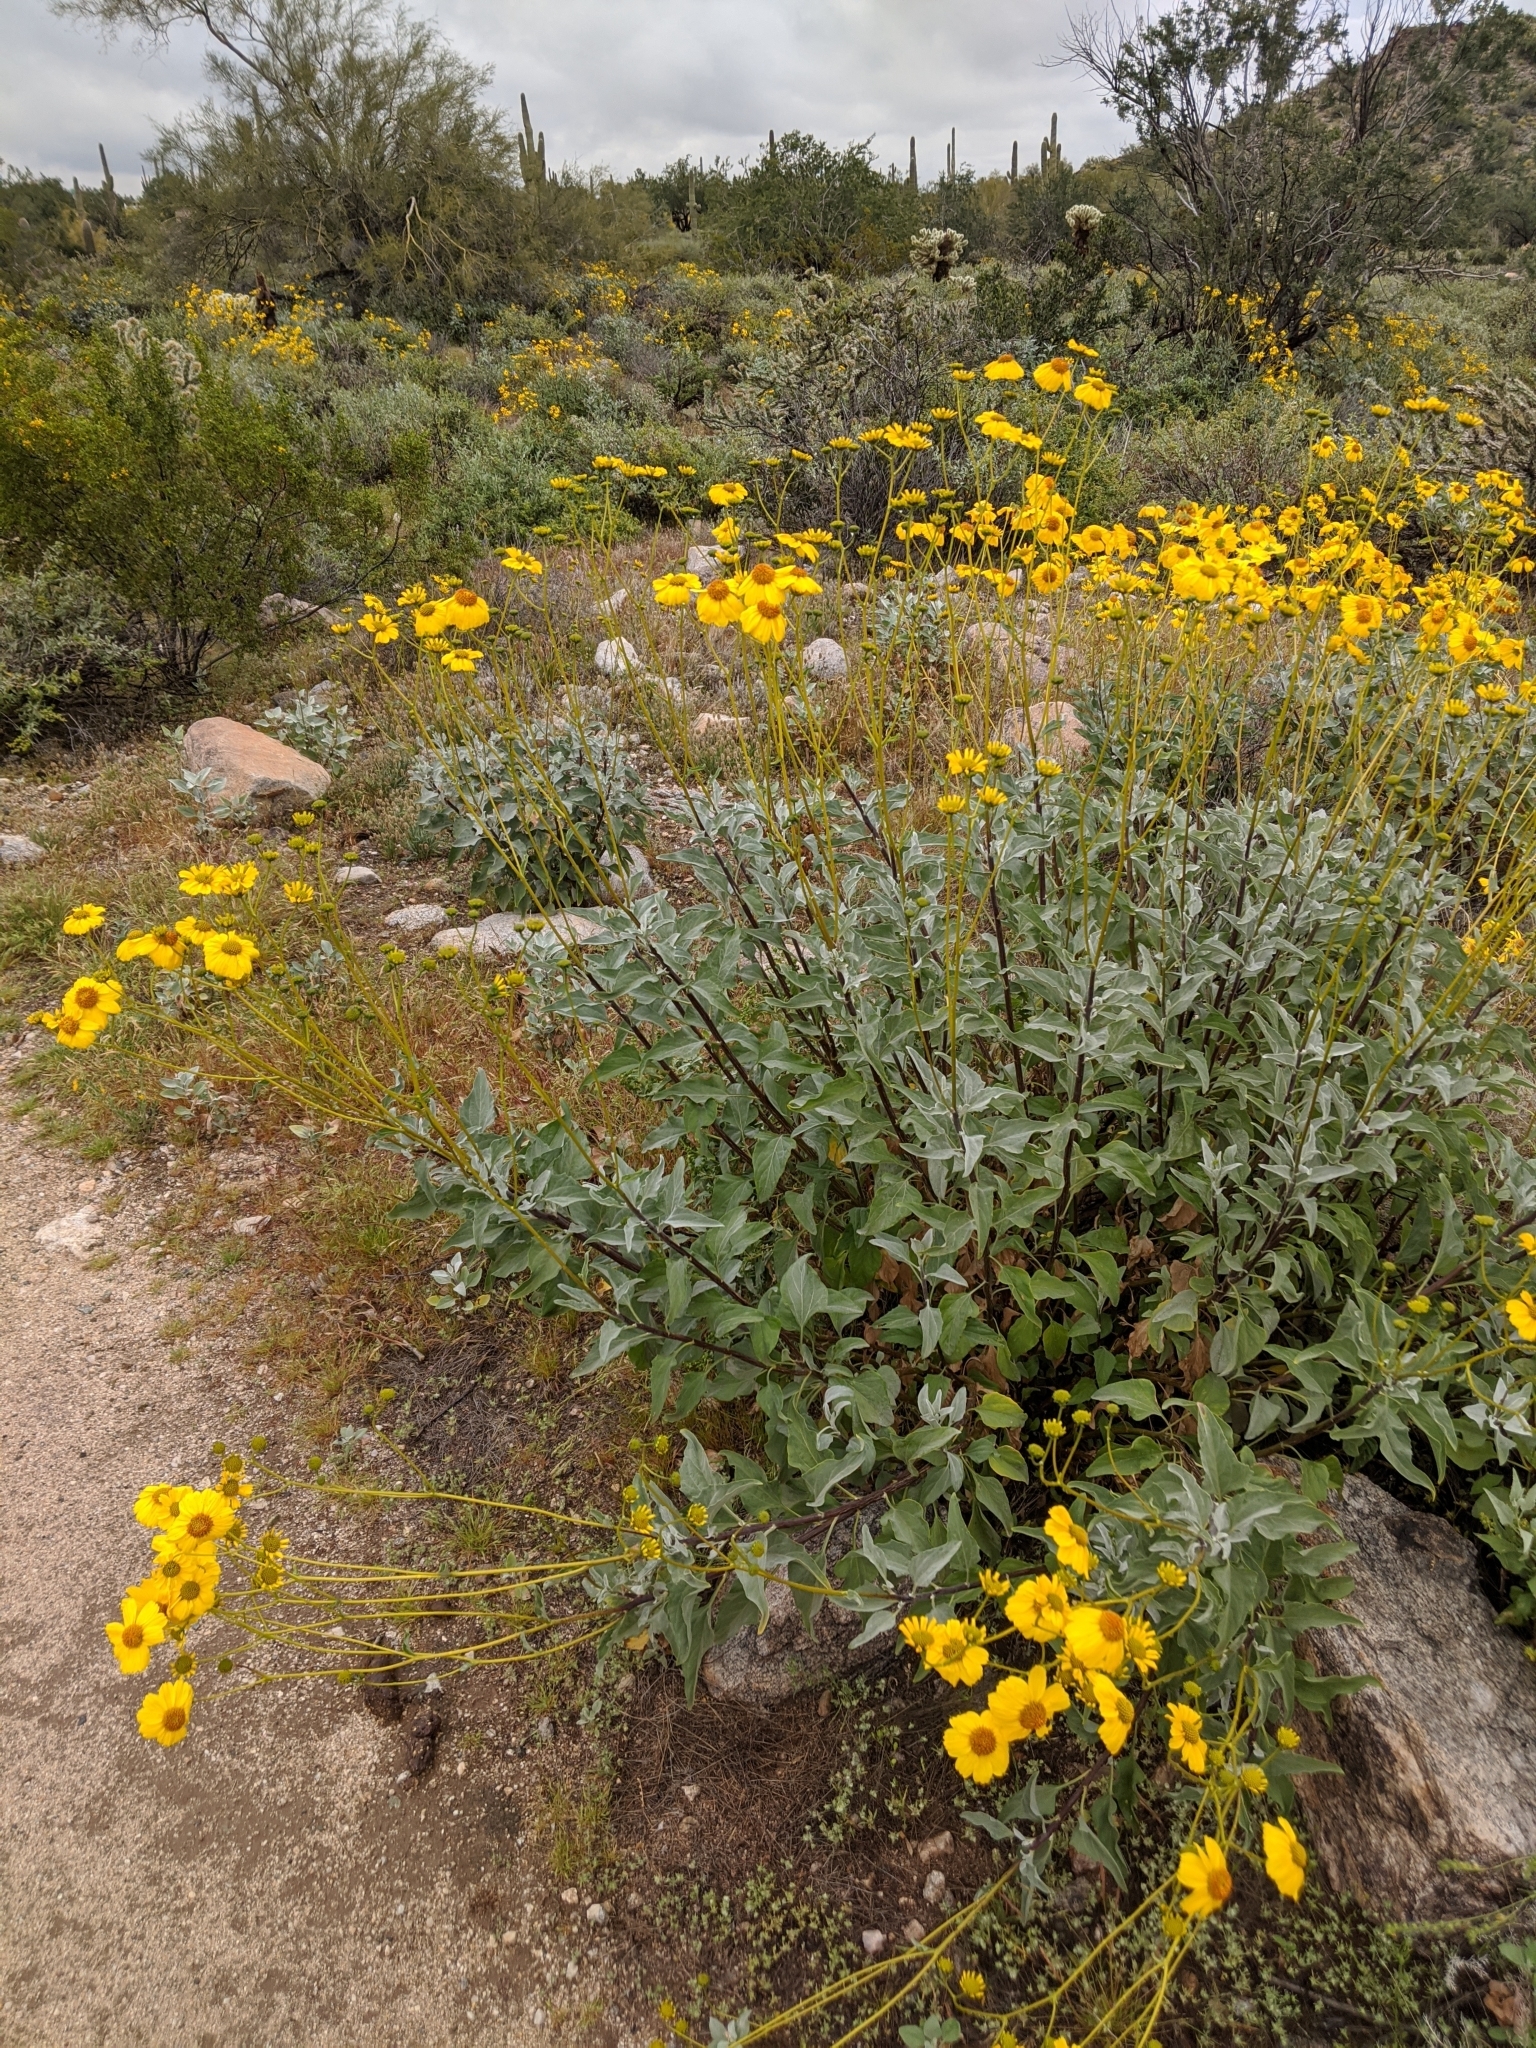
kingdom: Plantae
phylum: Tracheophyta
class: Magnoliopsida
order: Asterales
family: Asteraceae
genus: Encelia
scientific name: Encelia farinosa
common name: Brittlebush
